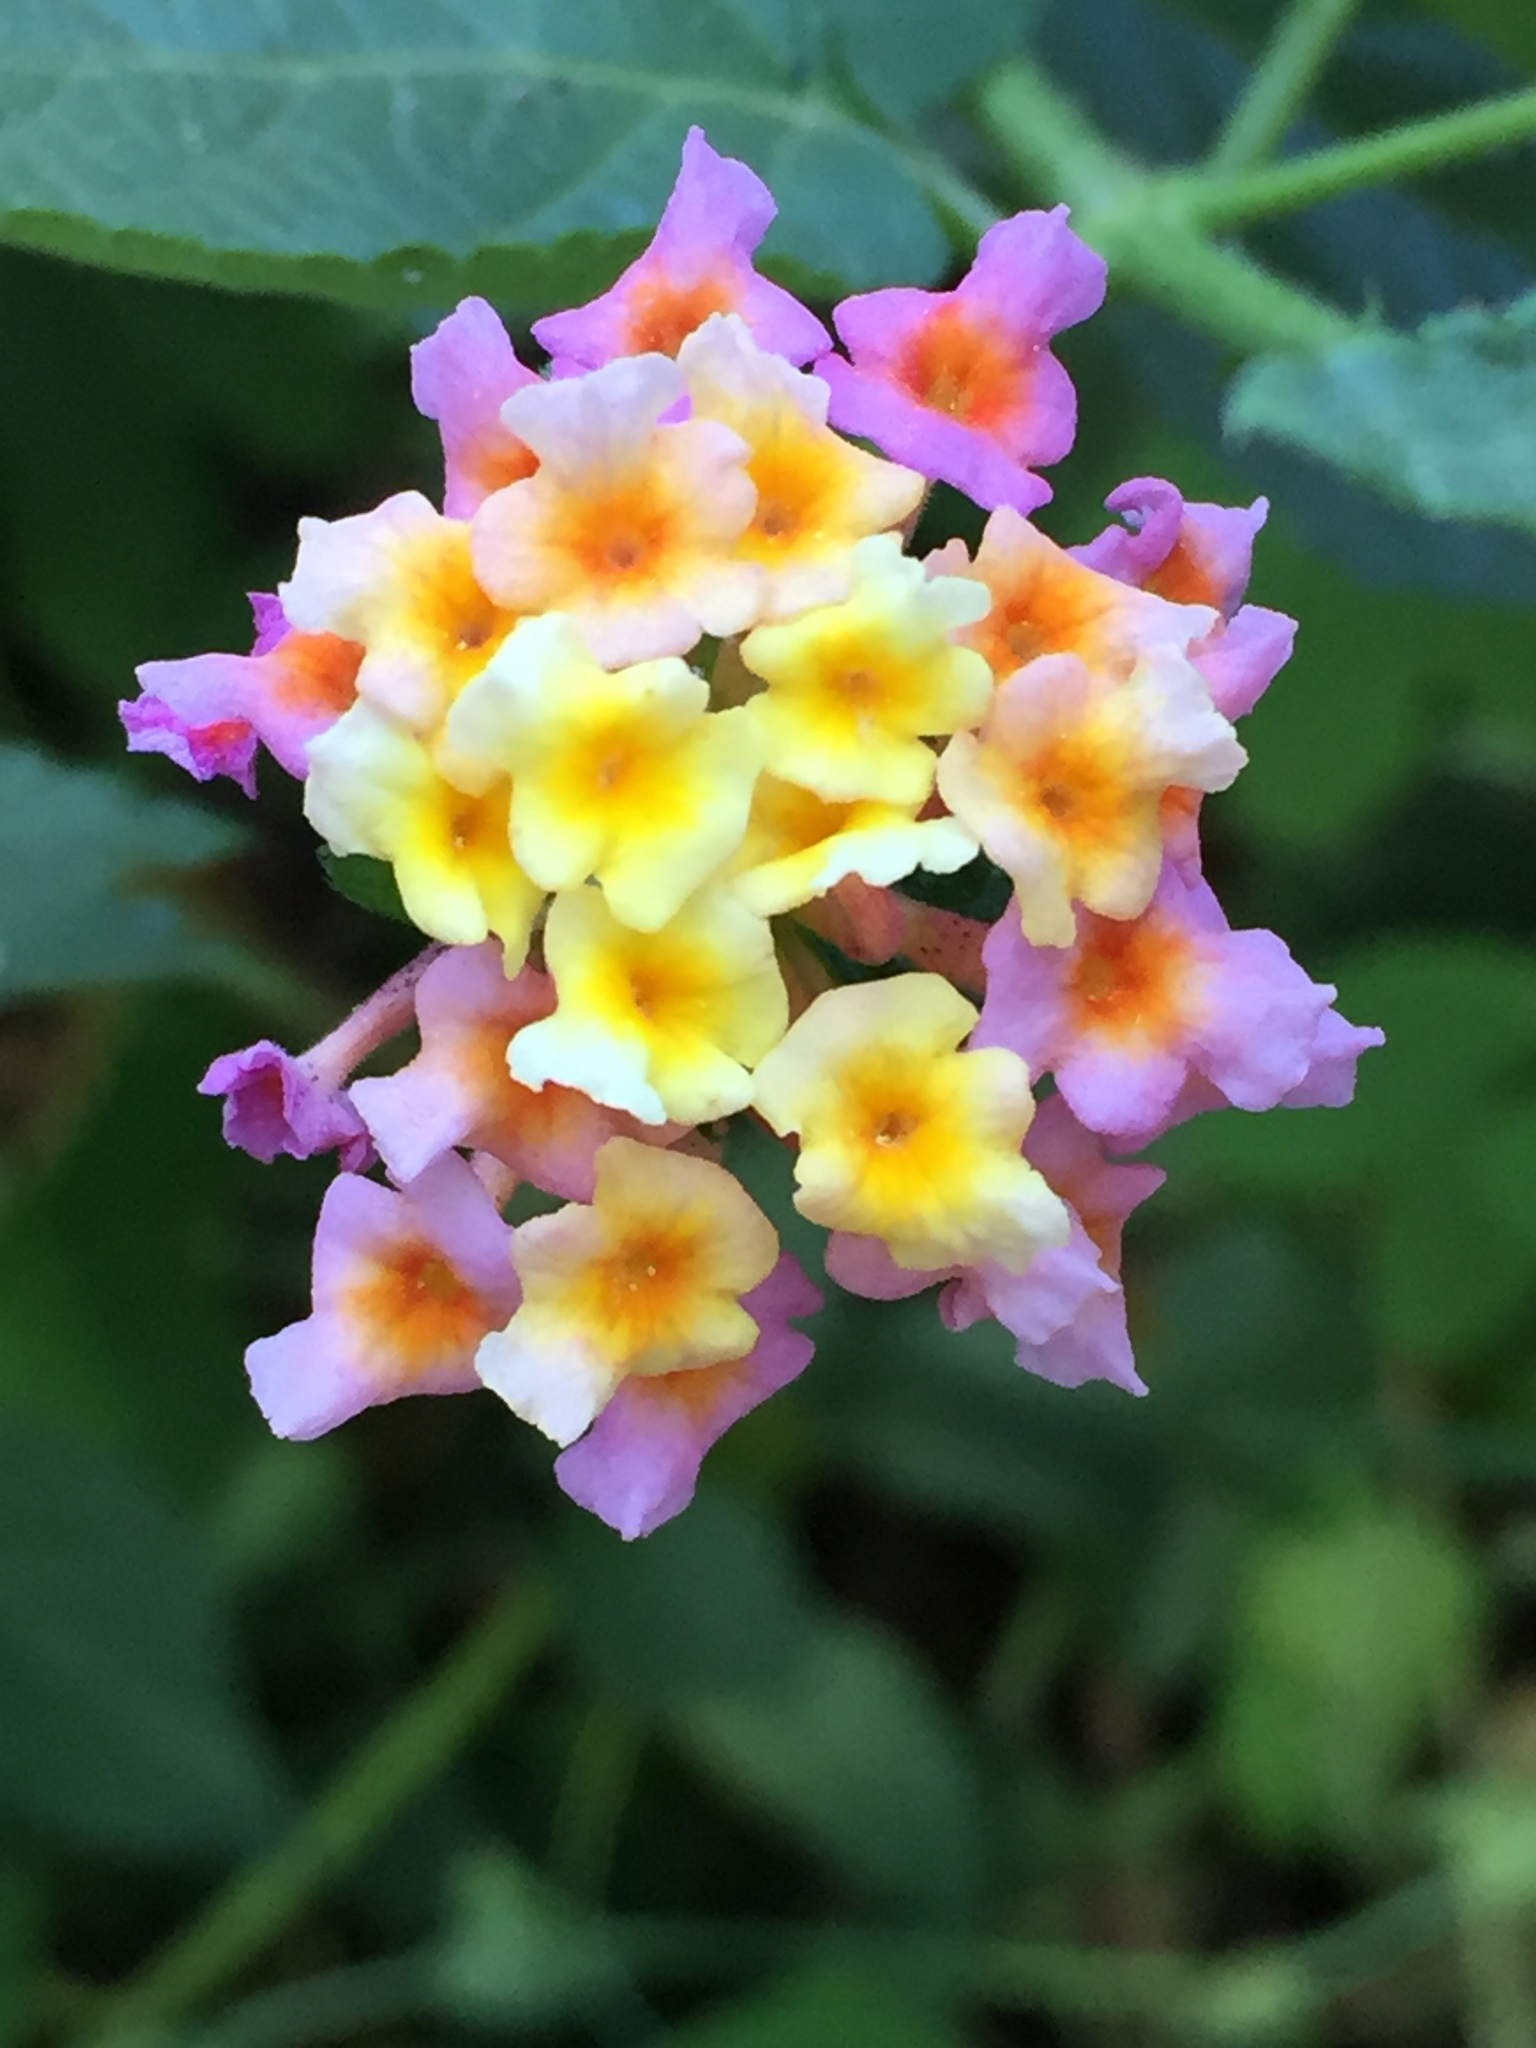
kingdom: Plantae
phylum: Tracheophyta
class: Magnoliopsida
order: Lamiales
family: Verbenaceae
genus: Lantana
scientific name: Lantana camara
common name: Lantana
